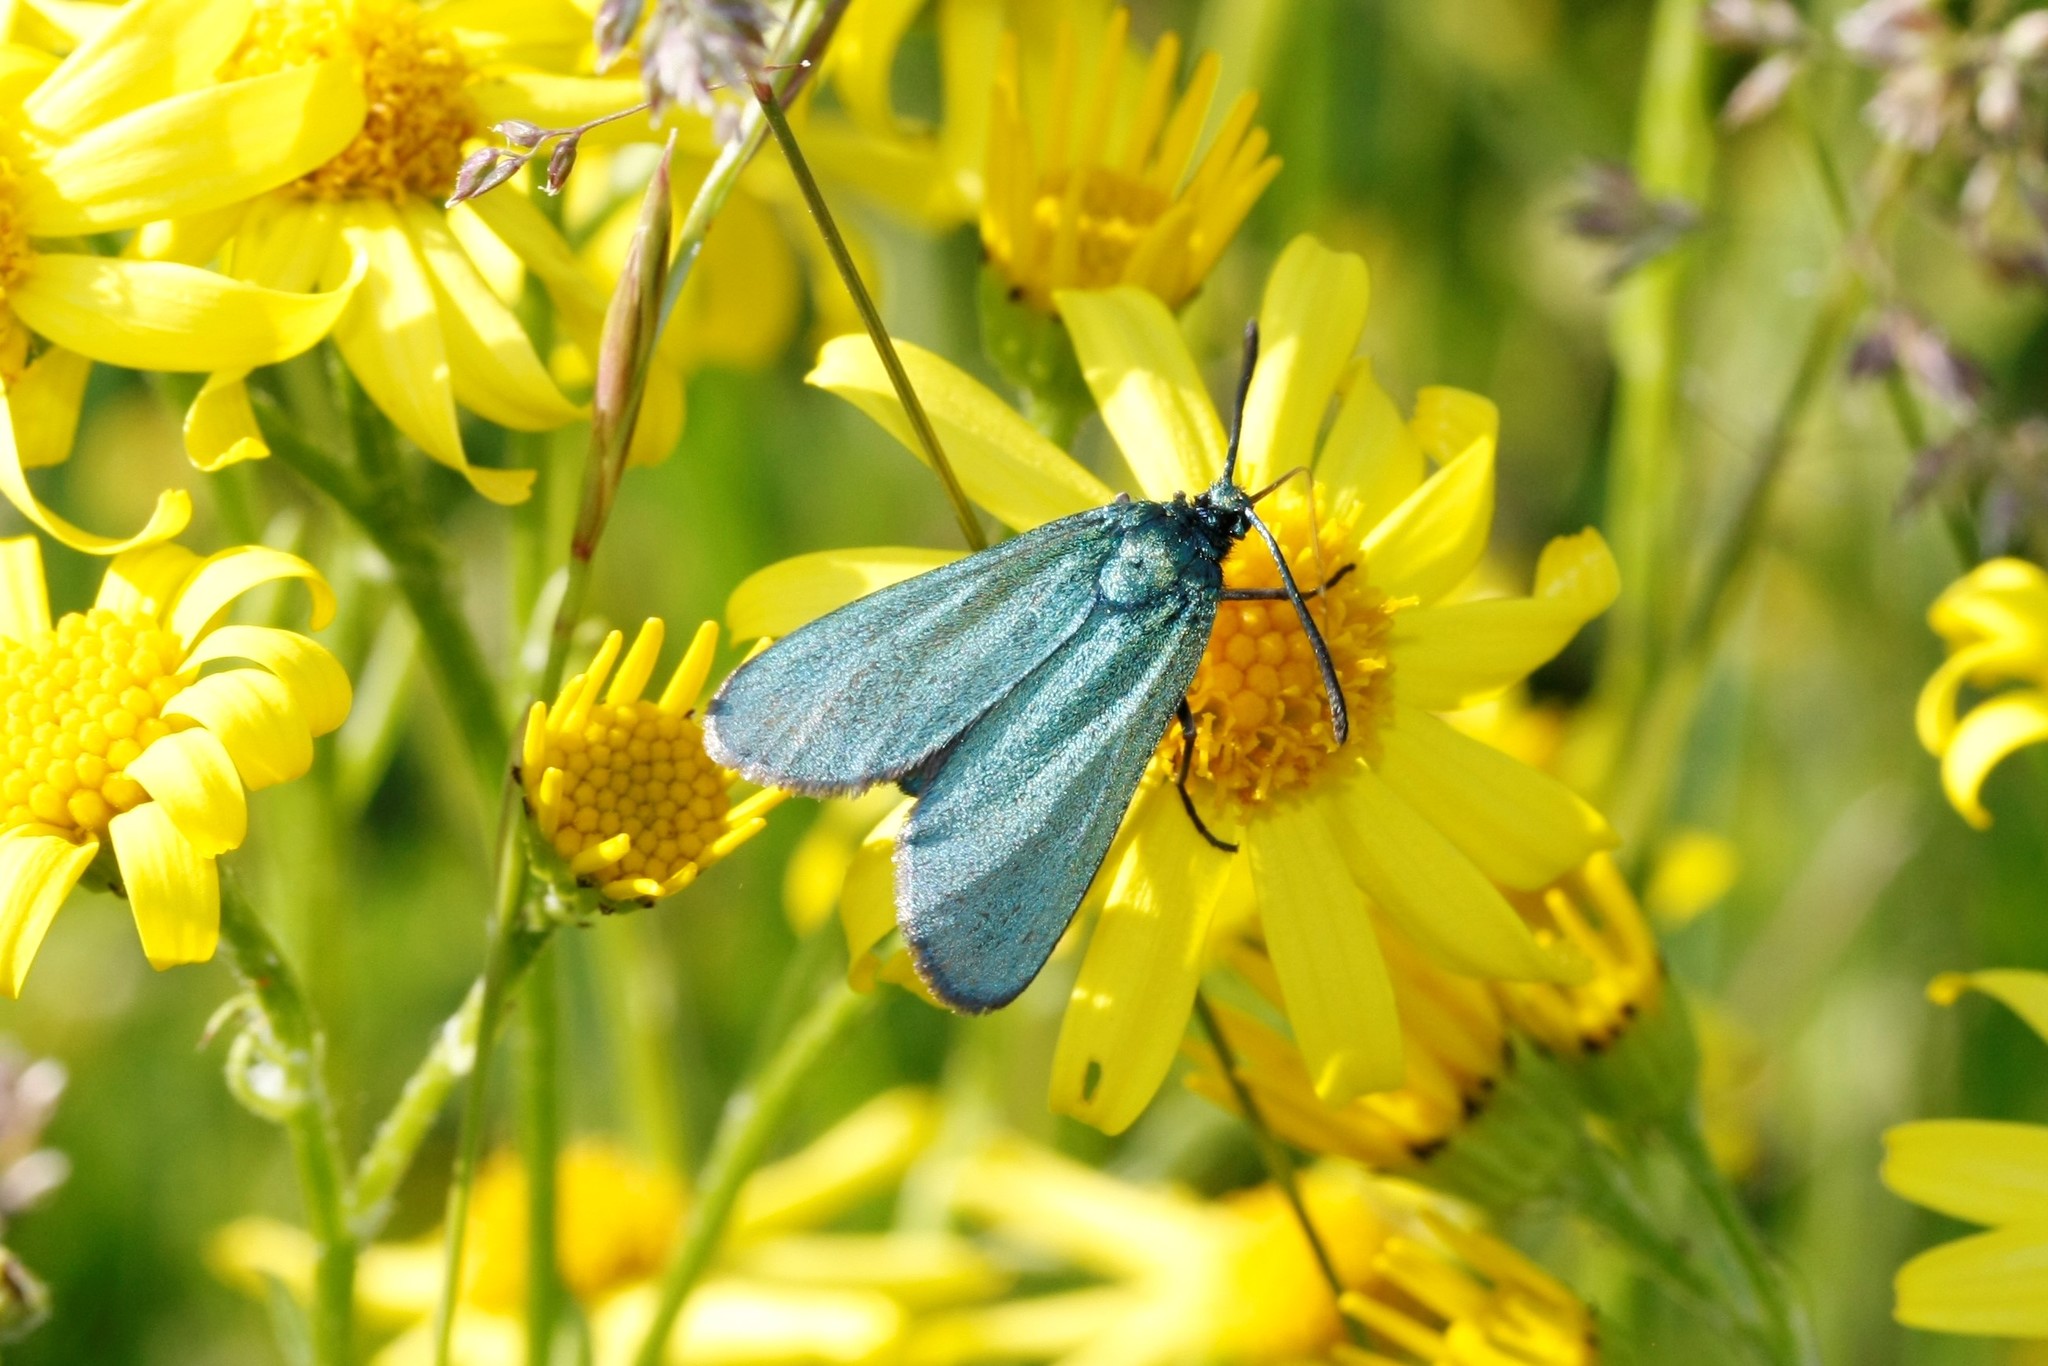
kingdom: Animalia
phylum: Arthropoda
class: Insecta
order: Lepidoptera
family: Zygaenidae
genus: Adscita
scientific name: Adscita statices
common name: Forester
